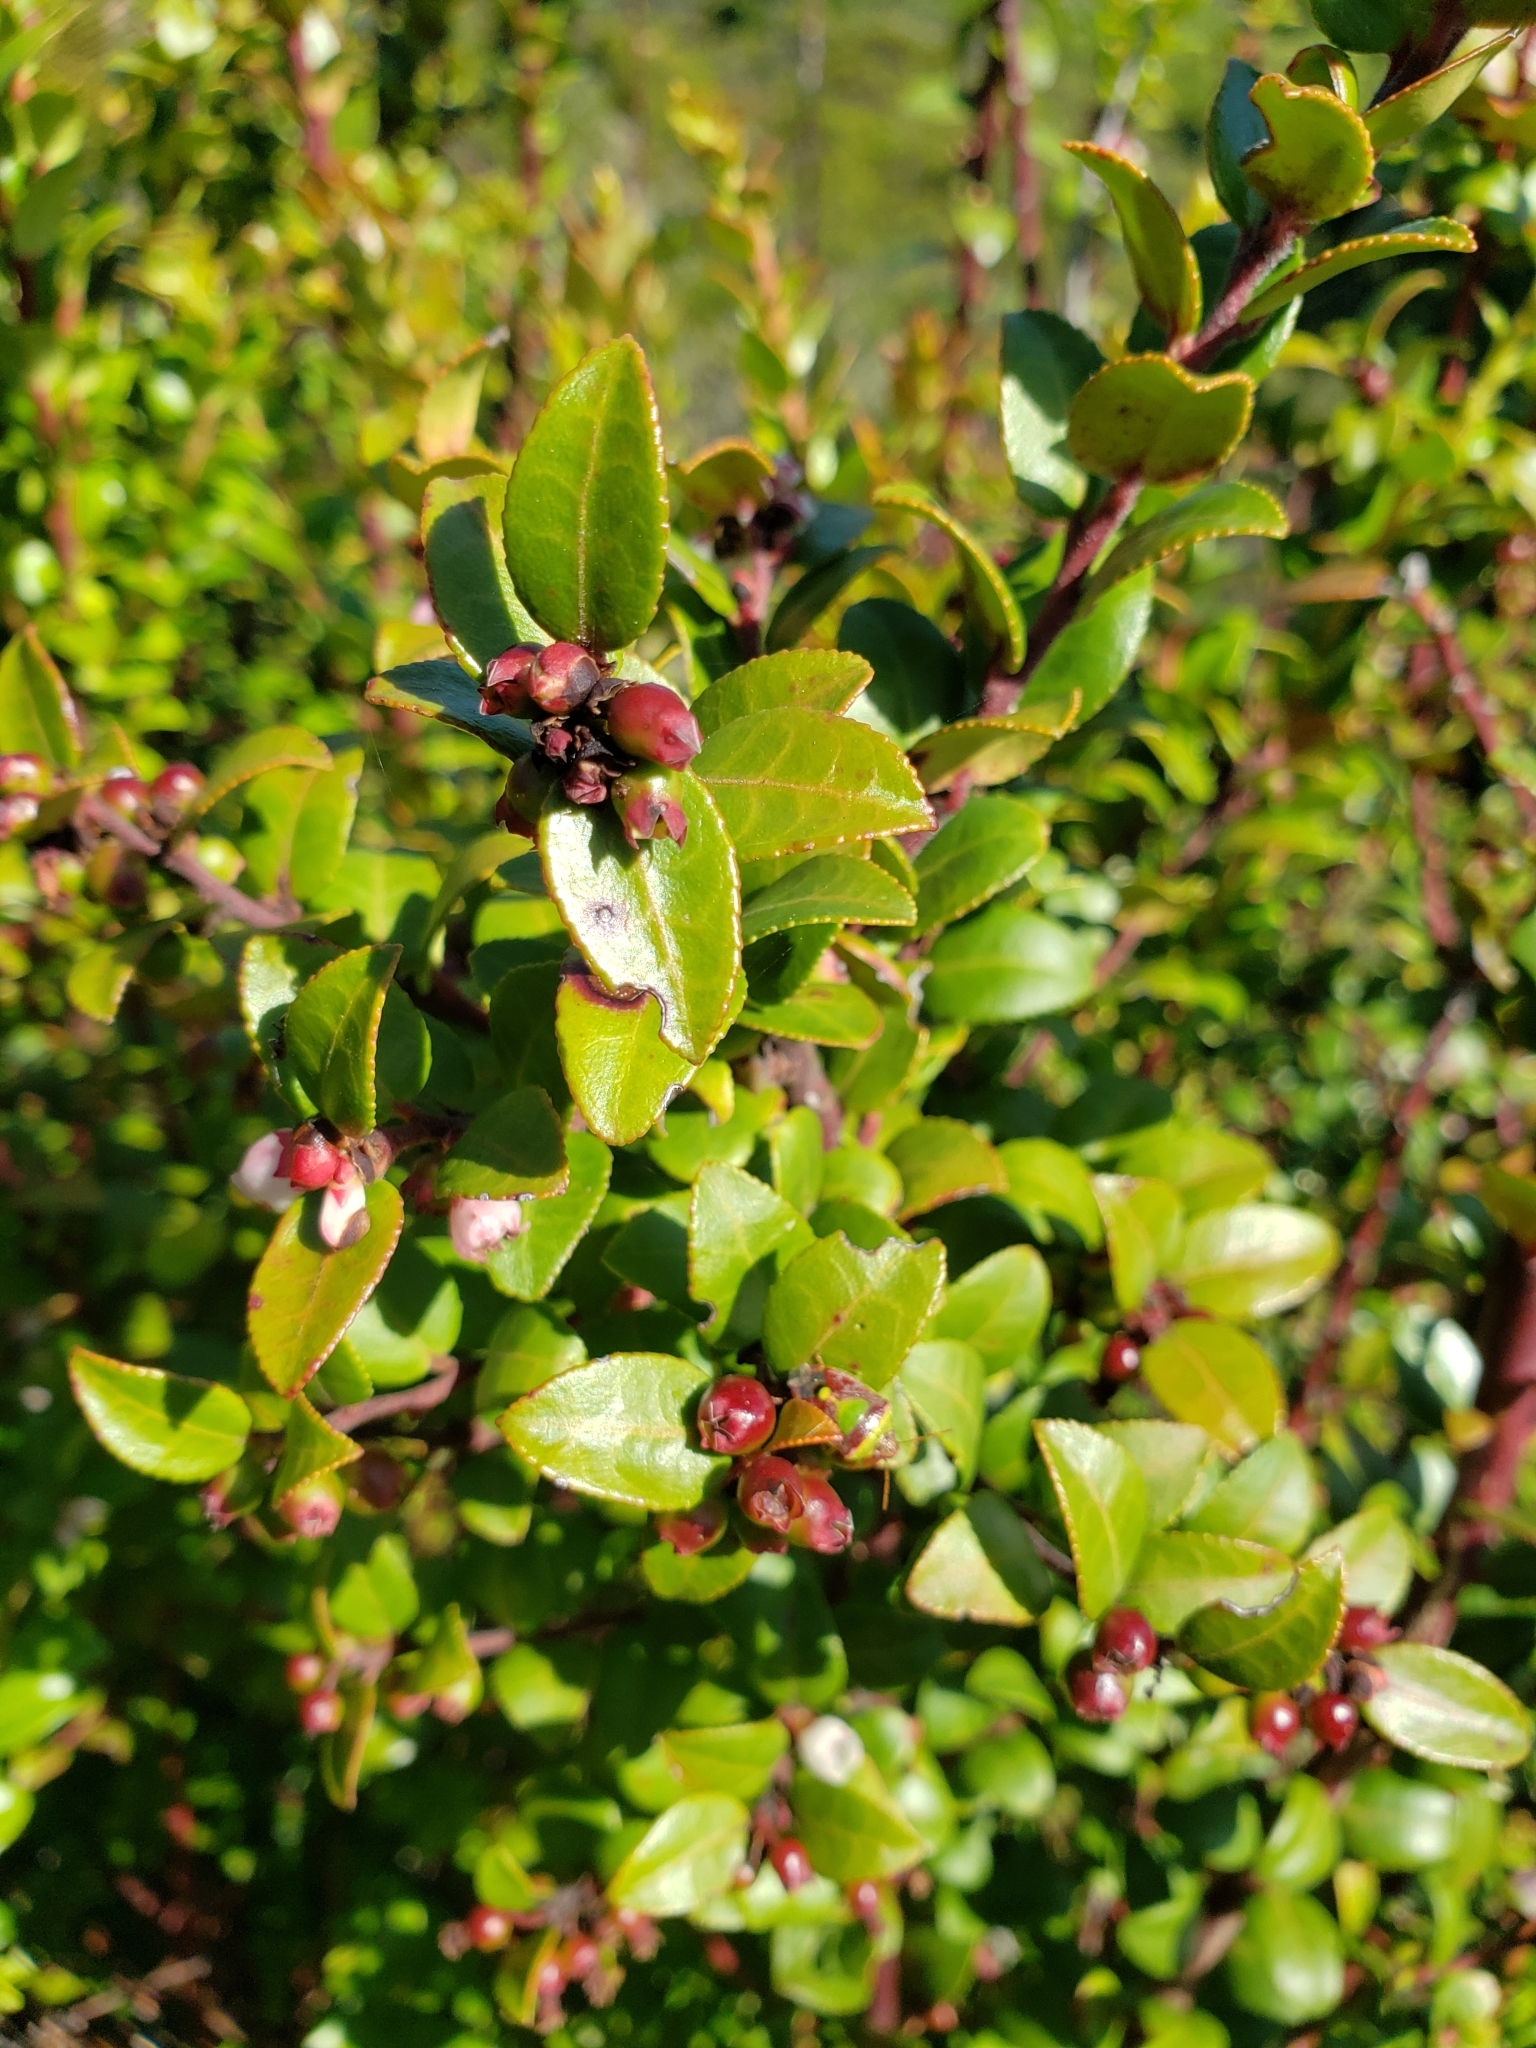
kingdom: Plantae
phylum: Tracheophyta
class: Magnoliopsida
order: Ericales
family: Ericaceae
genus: Vaccinium
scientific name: Vaccinium ovatum
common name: California-huckleberry
